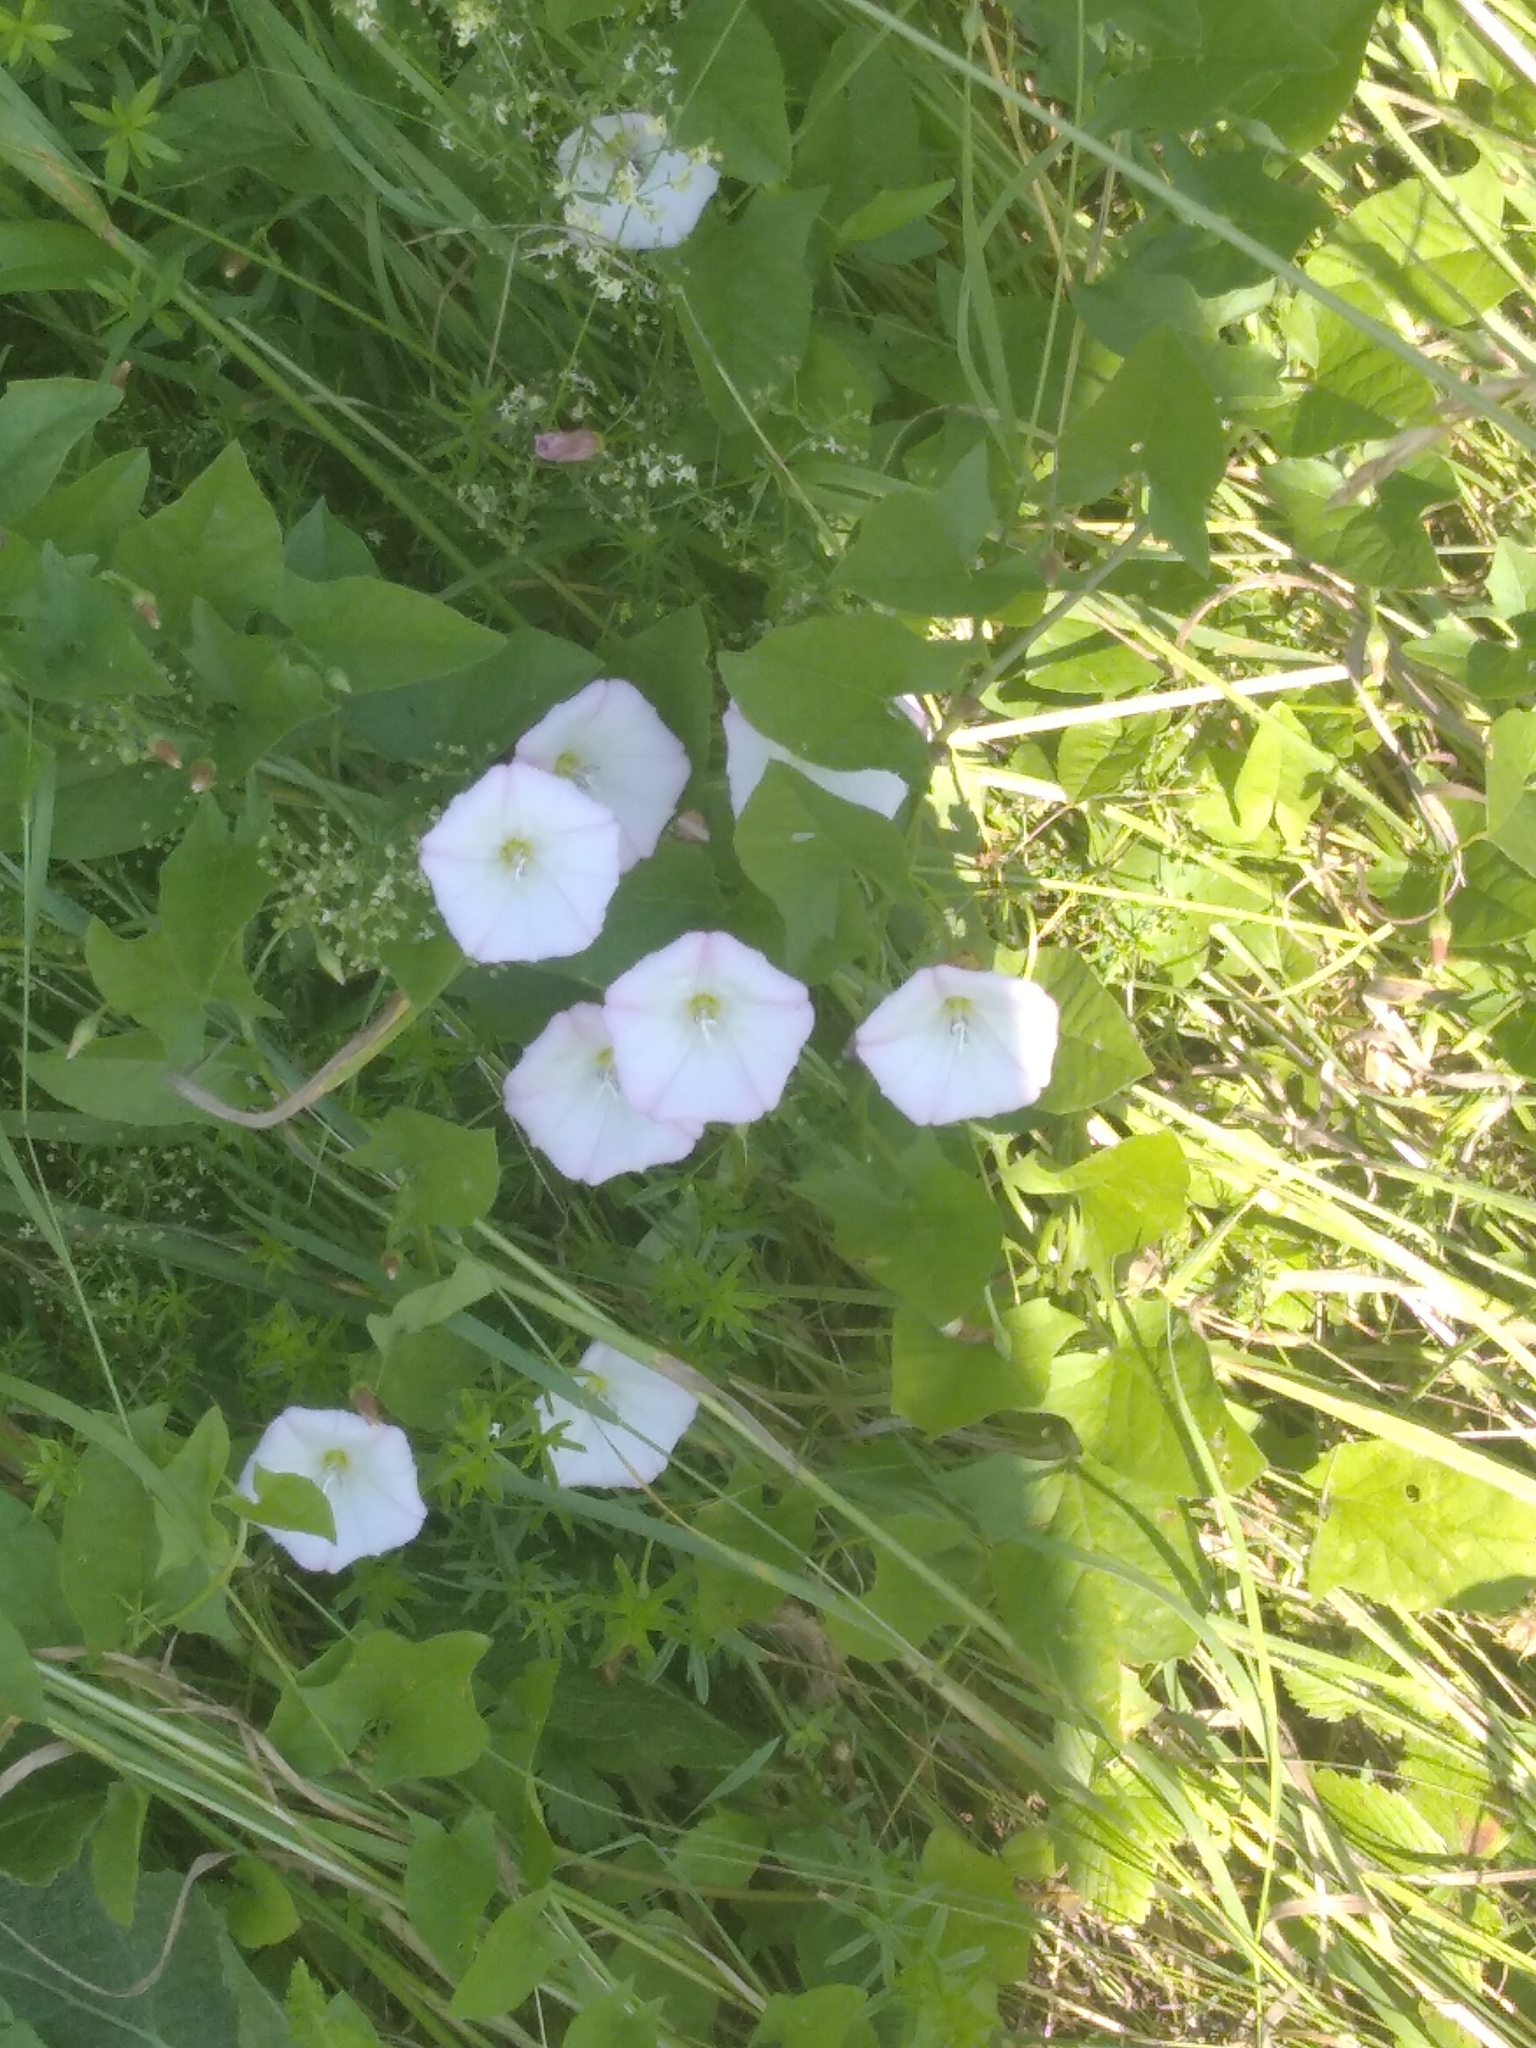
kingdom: Plantae
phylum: Tracheophyta
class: Magnoliopsida
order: Solanales
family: Convolvulaceae
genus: Convolvulus
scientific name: Convolvulus arvensis
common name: Field bindweed
